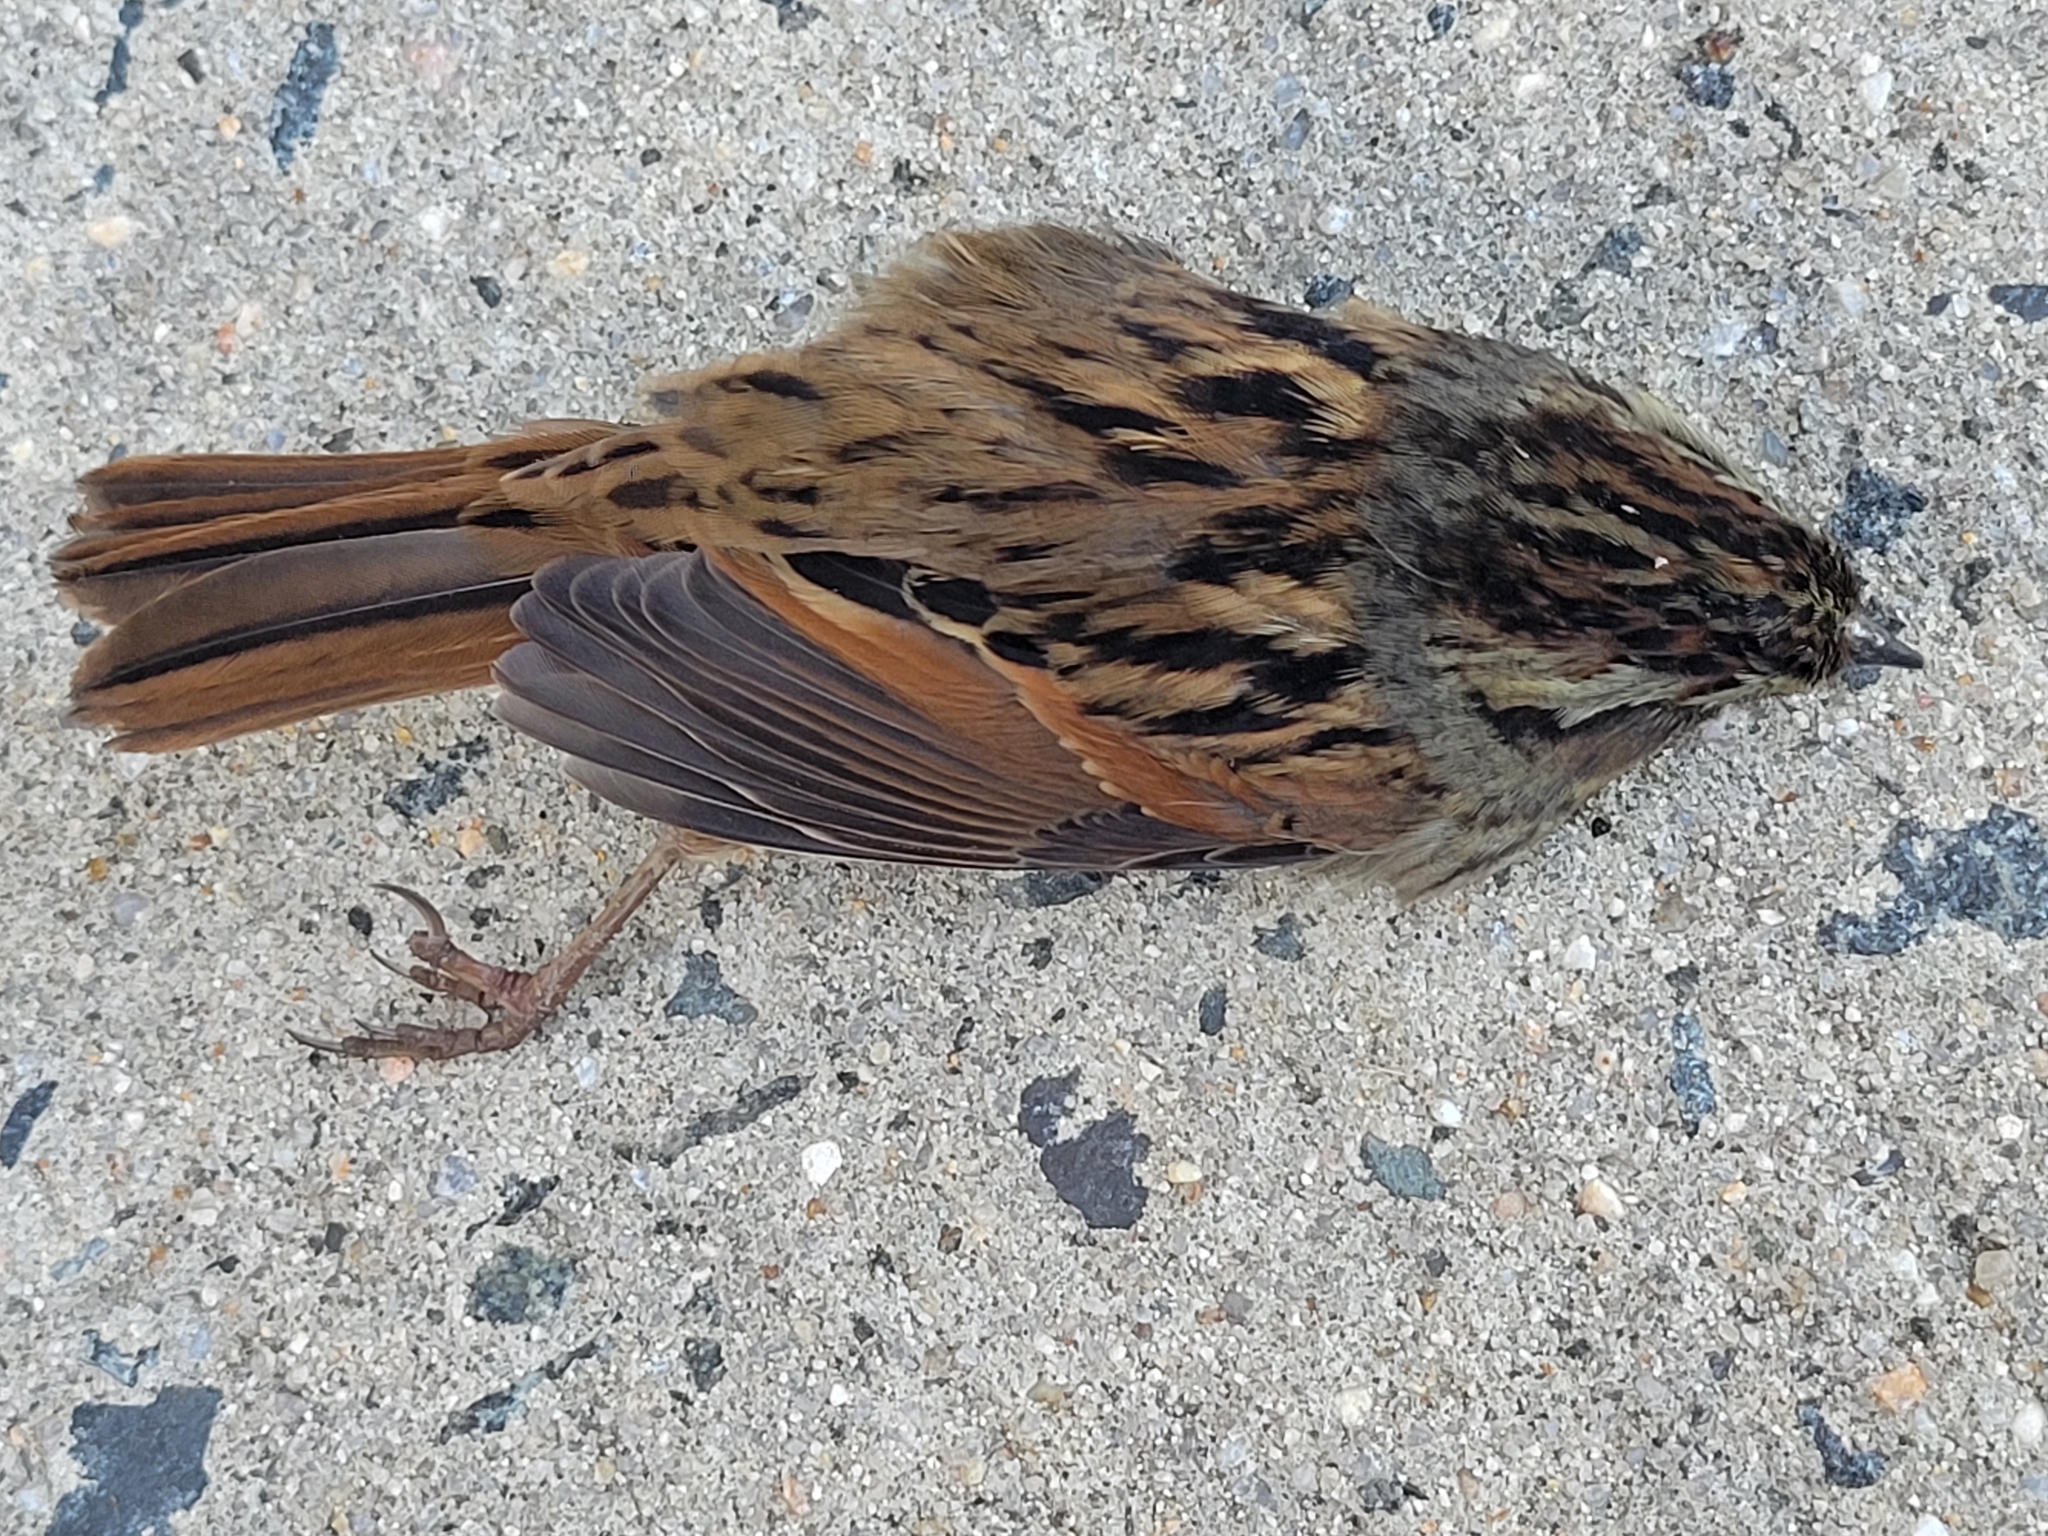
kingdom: Animalia
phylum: Chordata
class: Aves
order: Passeriformes
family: Passerellidae
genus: Melospiza
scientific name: Melospiza georgiana
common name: Swamp sparrow
